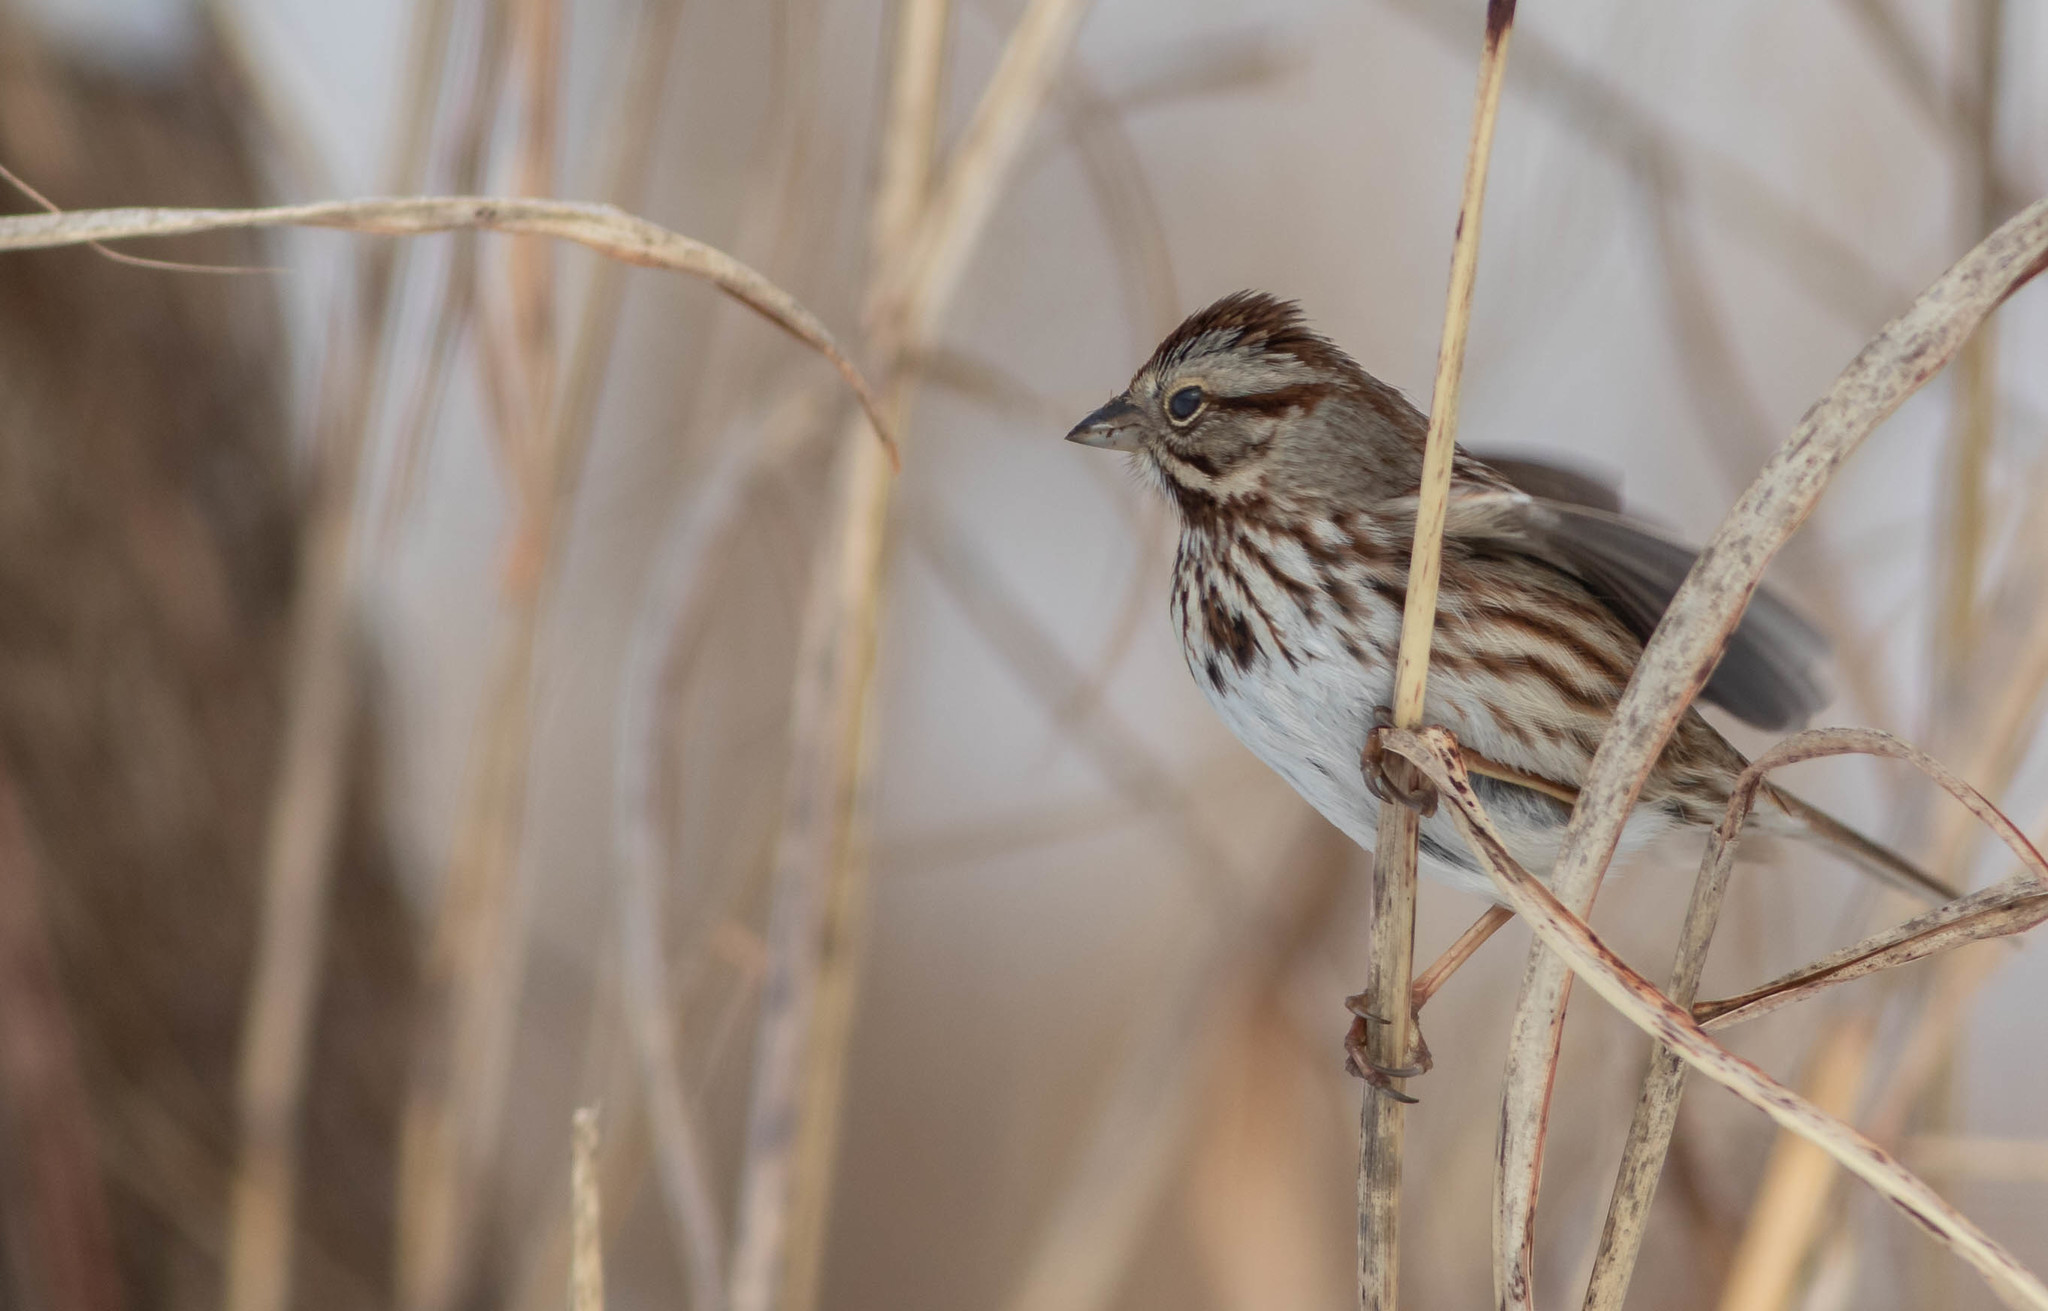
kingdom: Animalia
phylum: Chordata
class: Aves
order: Passeriformes
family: Passerellidae
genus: Melospiza
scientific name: Melospiza melodia
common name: Song sparrow
